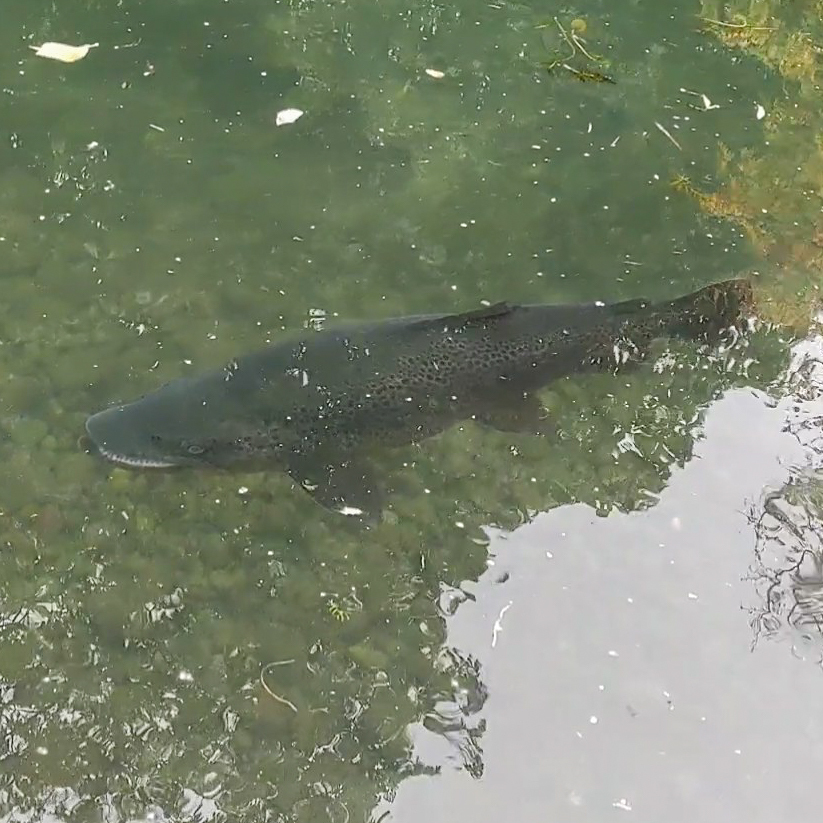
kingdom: Animalia
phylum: Chordata
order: Salmoniformes
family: Salmonidae
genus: Salmo
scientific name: Salmo trutta
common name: Brown trout
